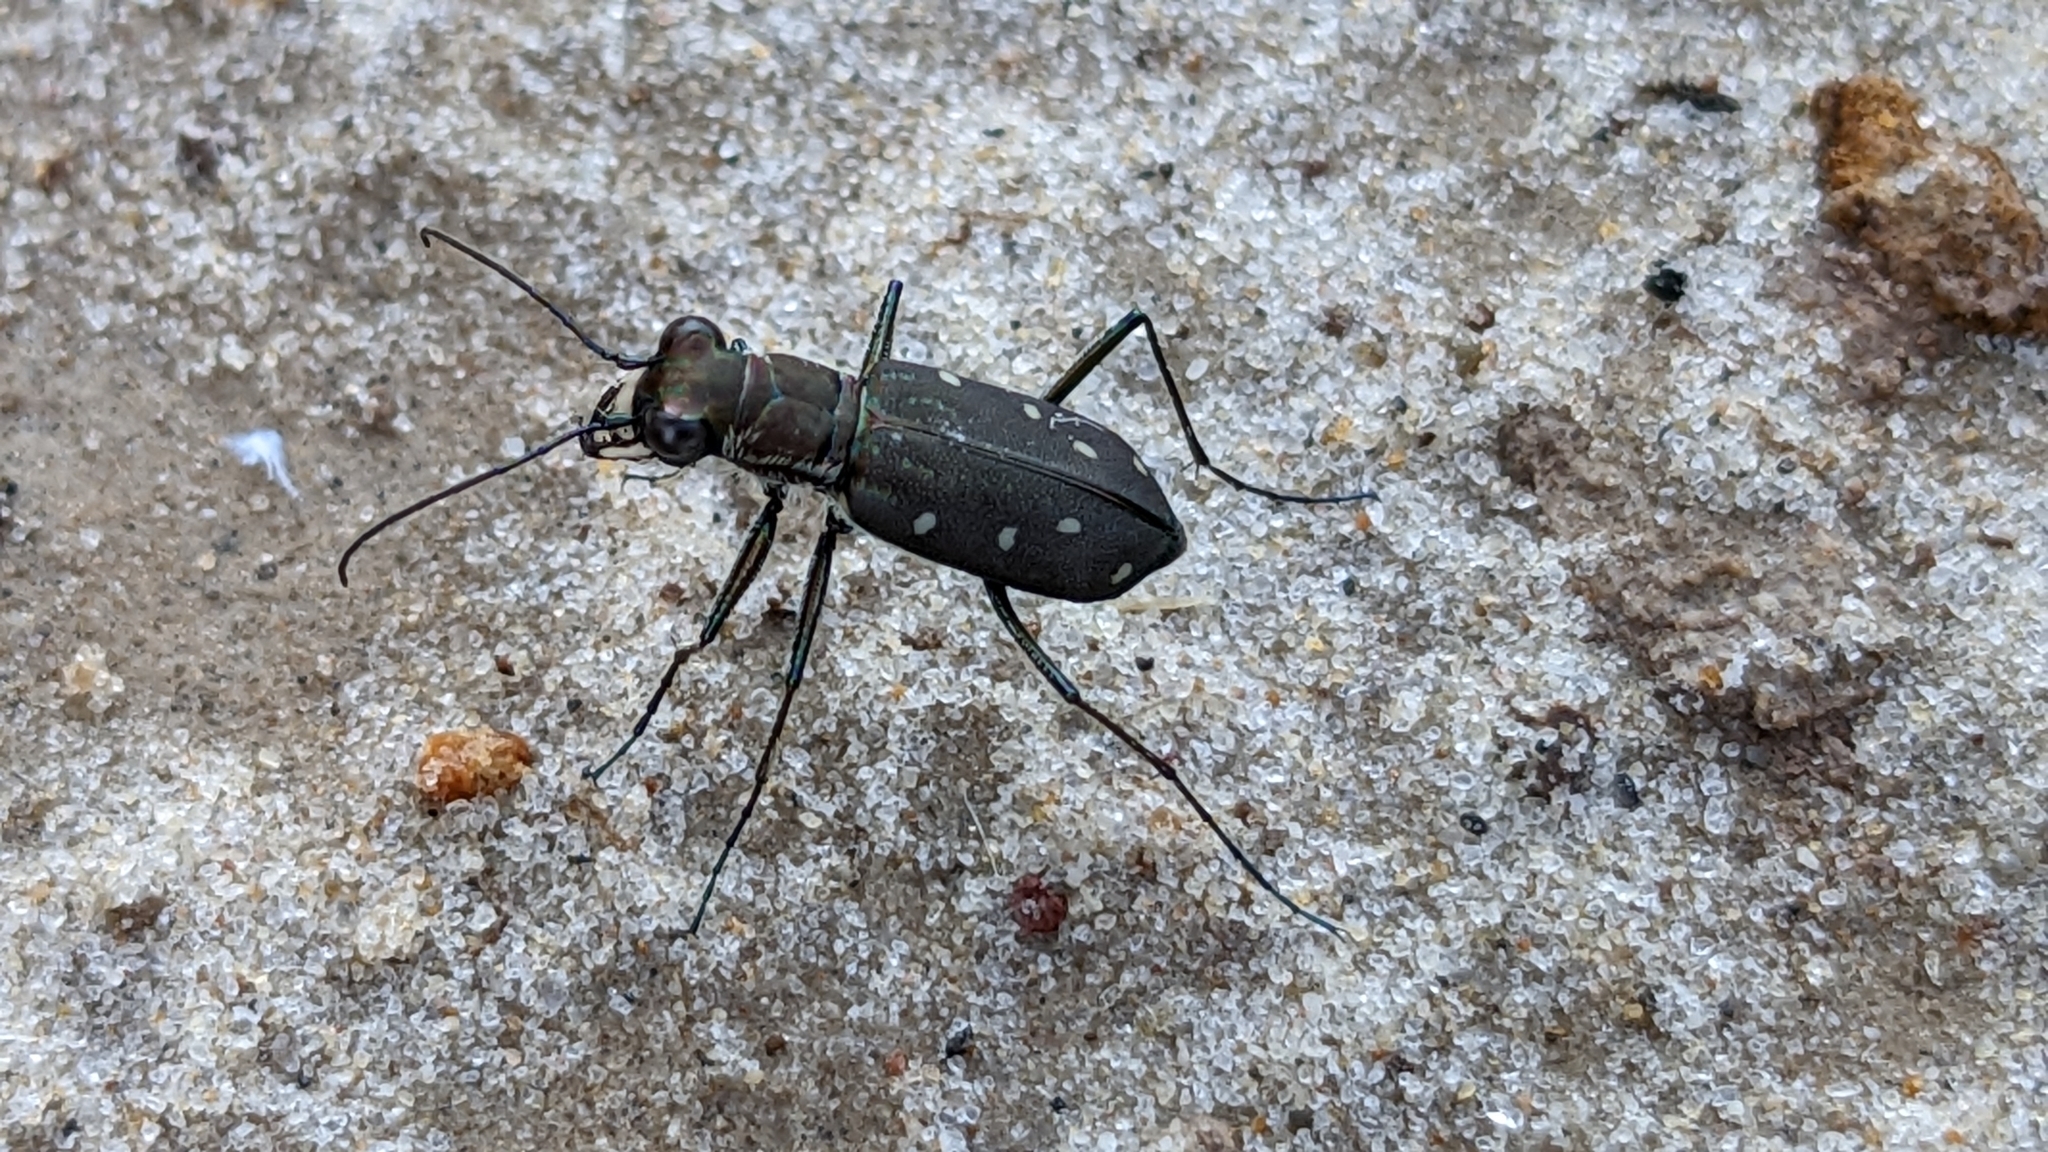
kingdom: Animalia
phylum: Arthropoda
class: Insecta
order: Coleoptera
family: Carabidae
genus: Cicindela
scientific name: Cicindela ocellata
